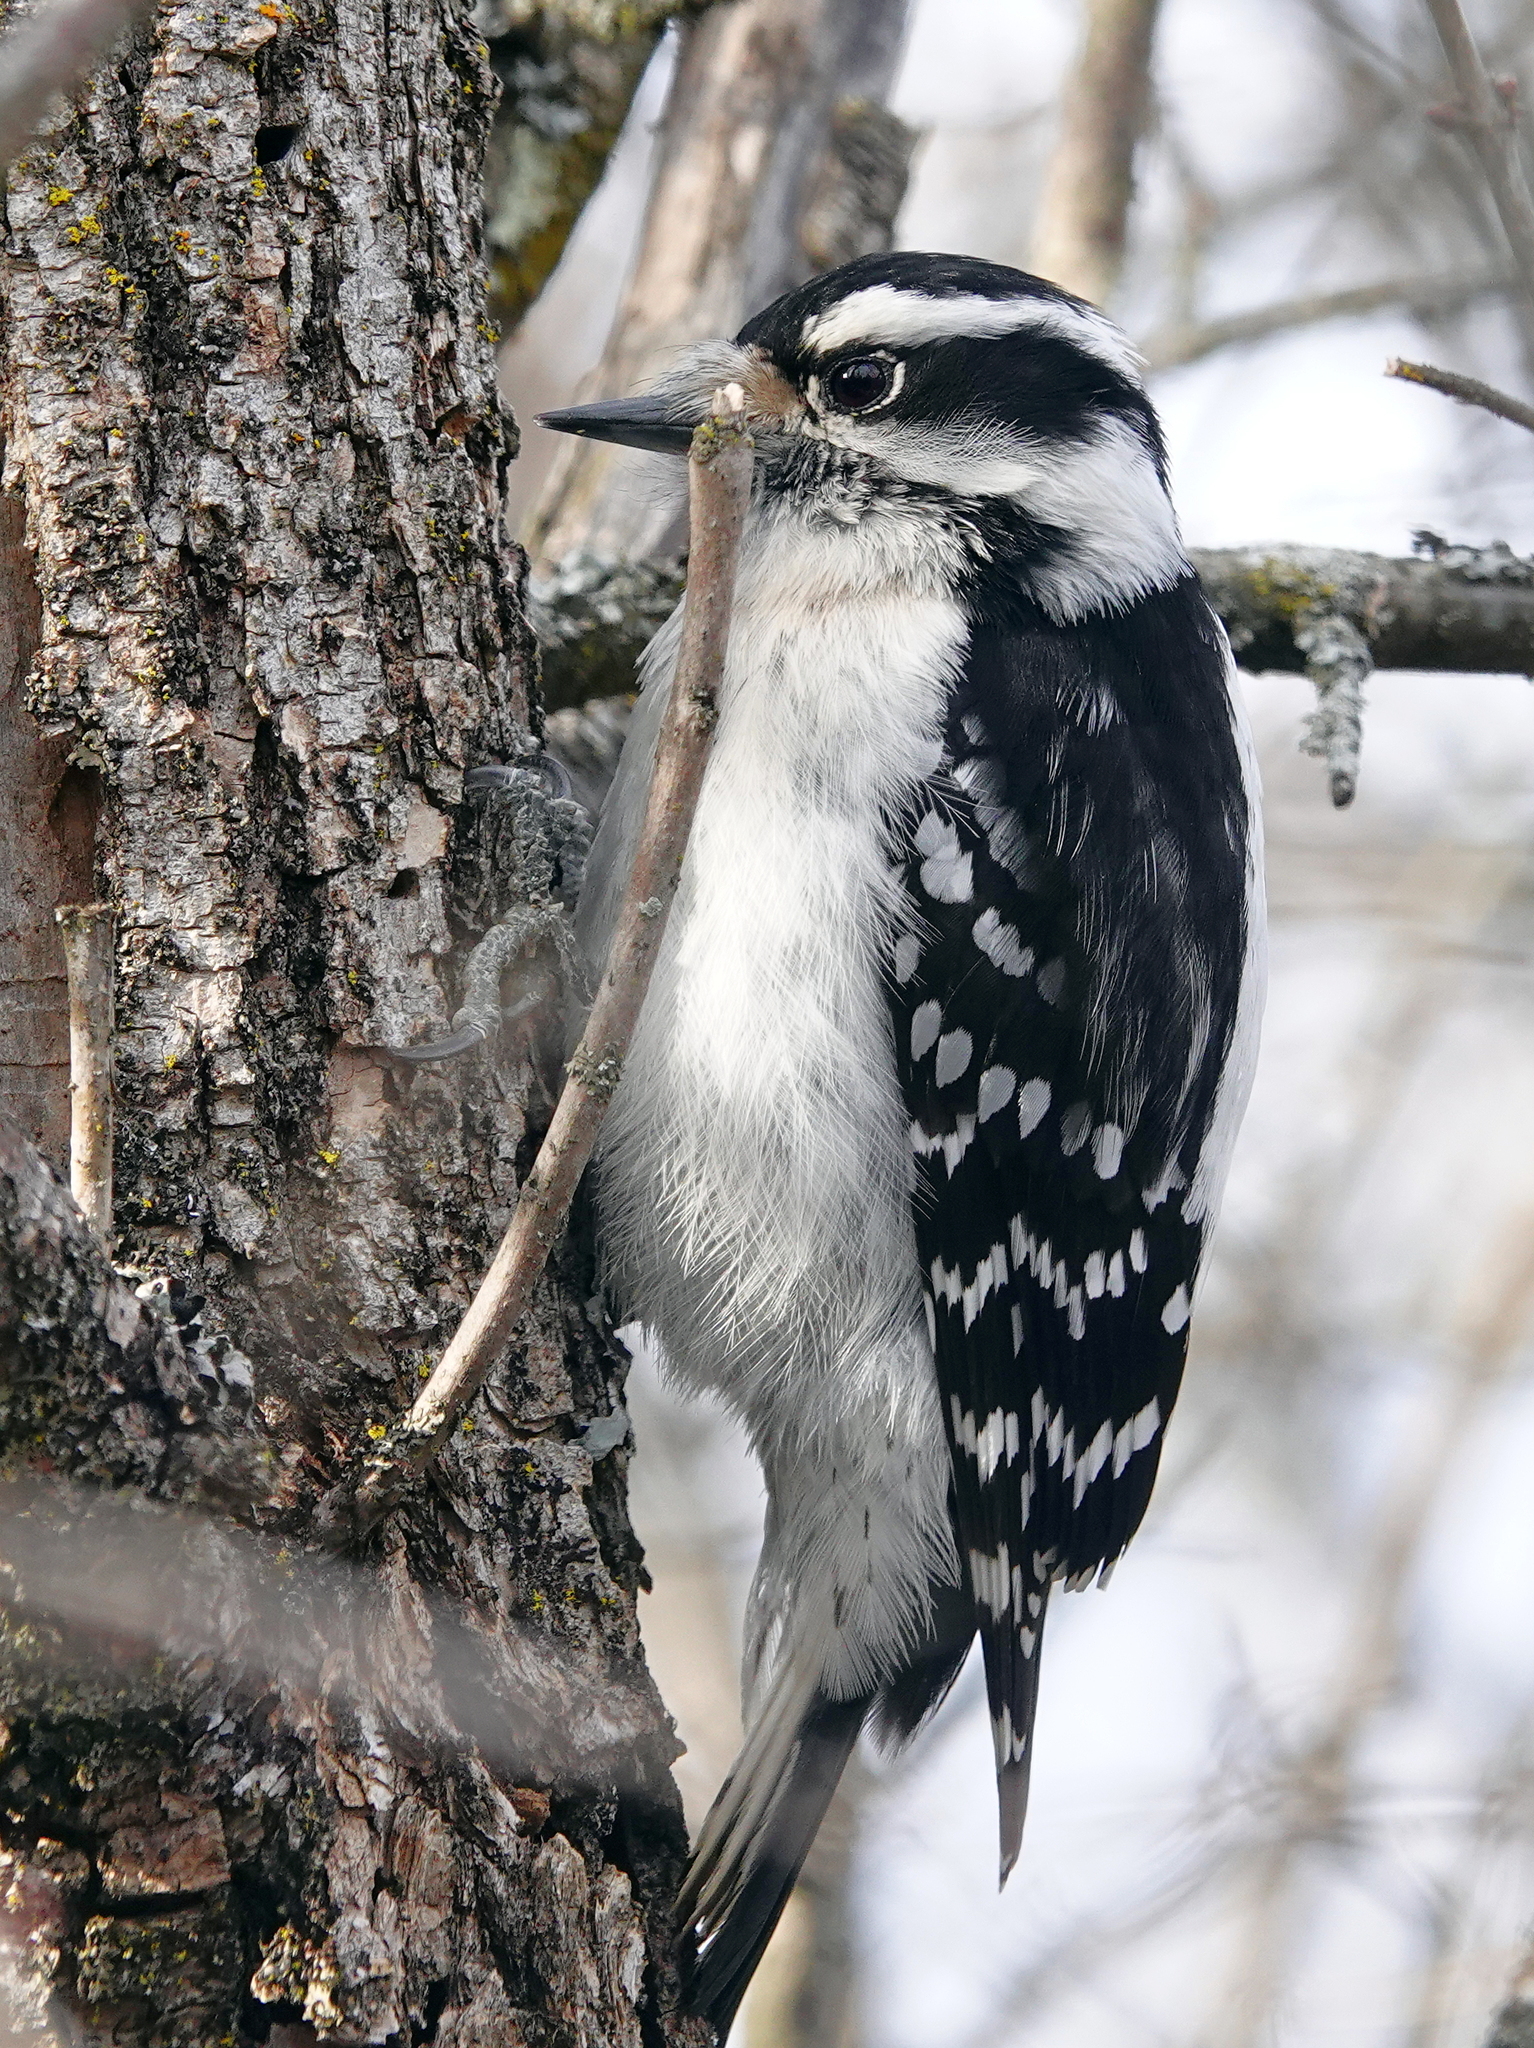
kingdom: Animalia
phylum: Chordata
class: Aves
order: Piciformes
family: Picidae
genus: Dryobates
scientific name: Dryobates pubescens
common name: Downy woodpecker
